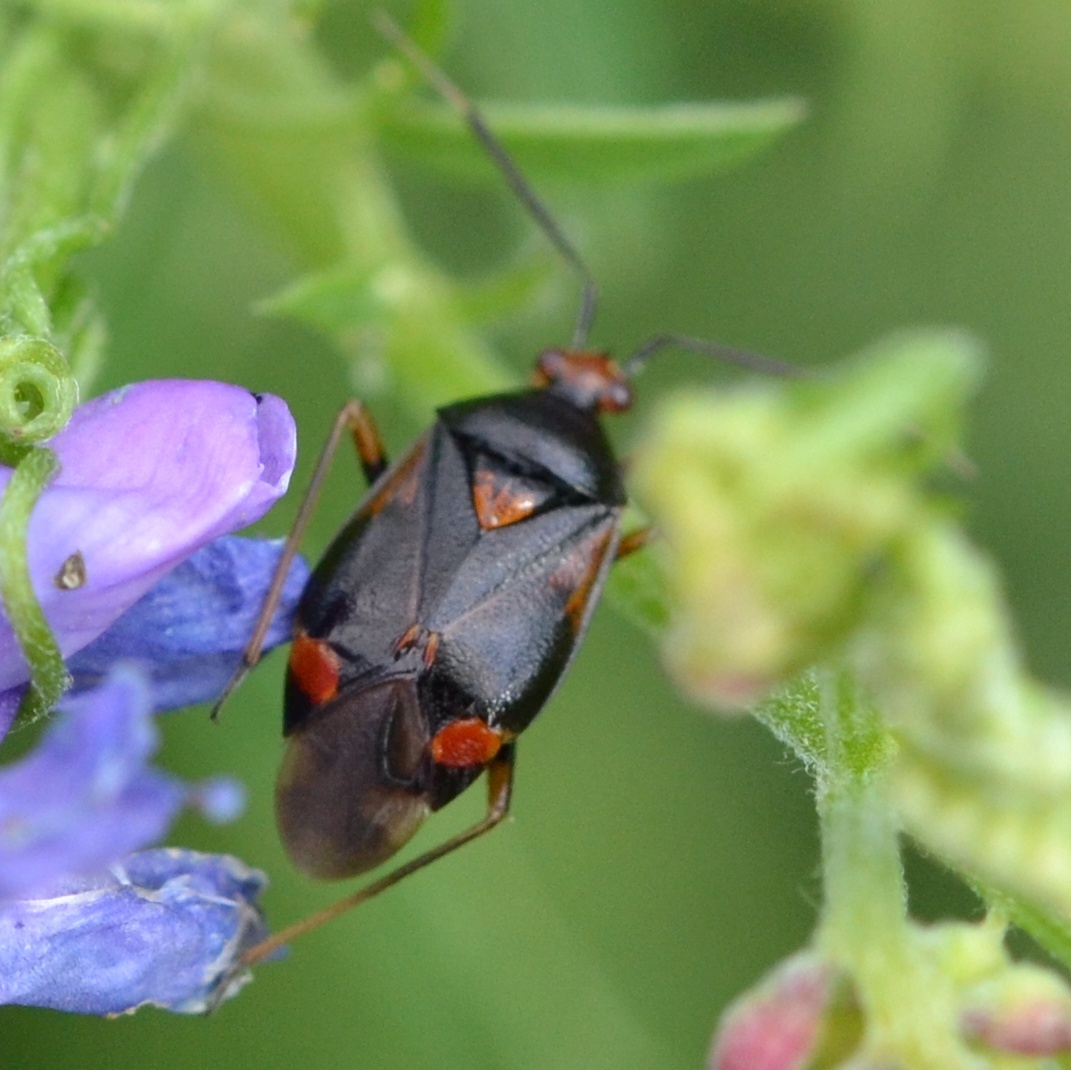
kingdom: Animalia
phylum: Arthropoda
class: Insecta
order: Hemiptera
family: Miridae
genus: Deraeocoris
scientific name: Deraeocoris ruber
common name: Plant bug
